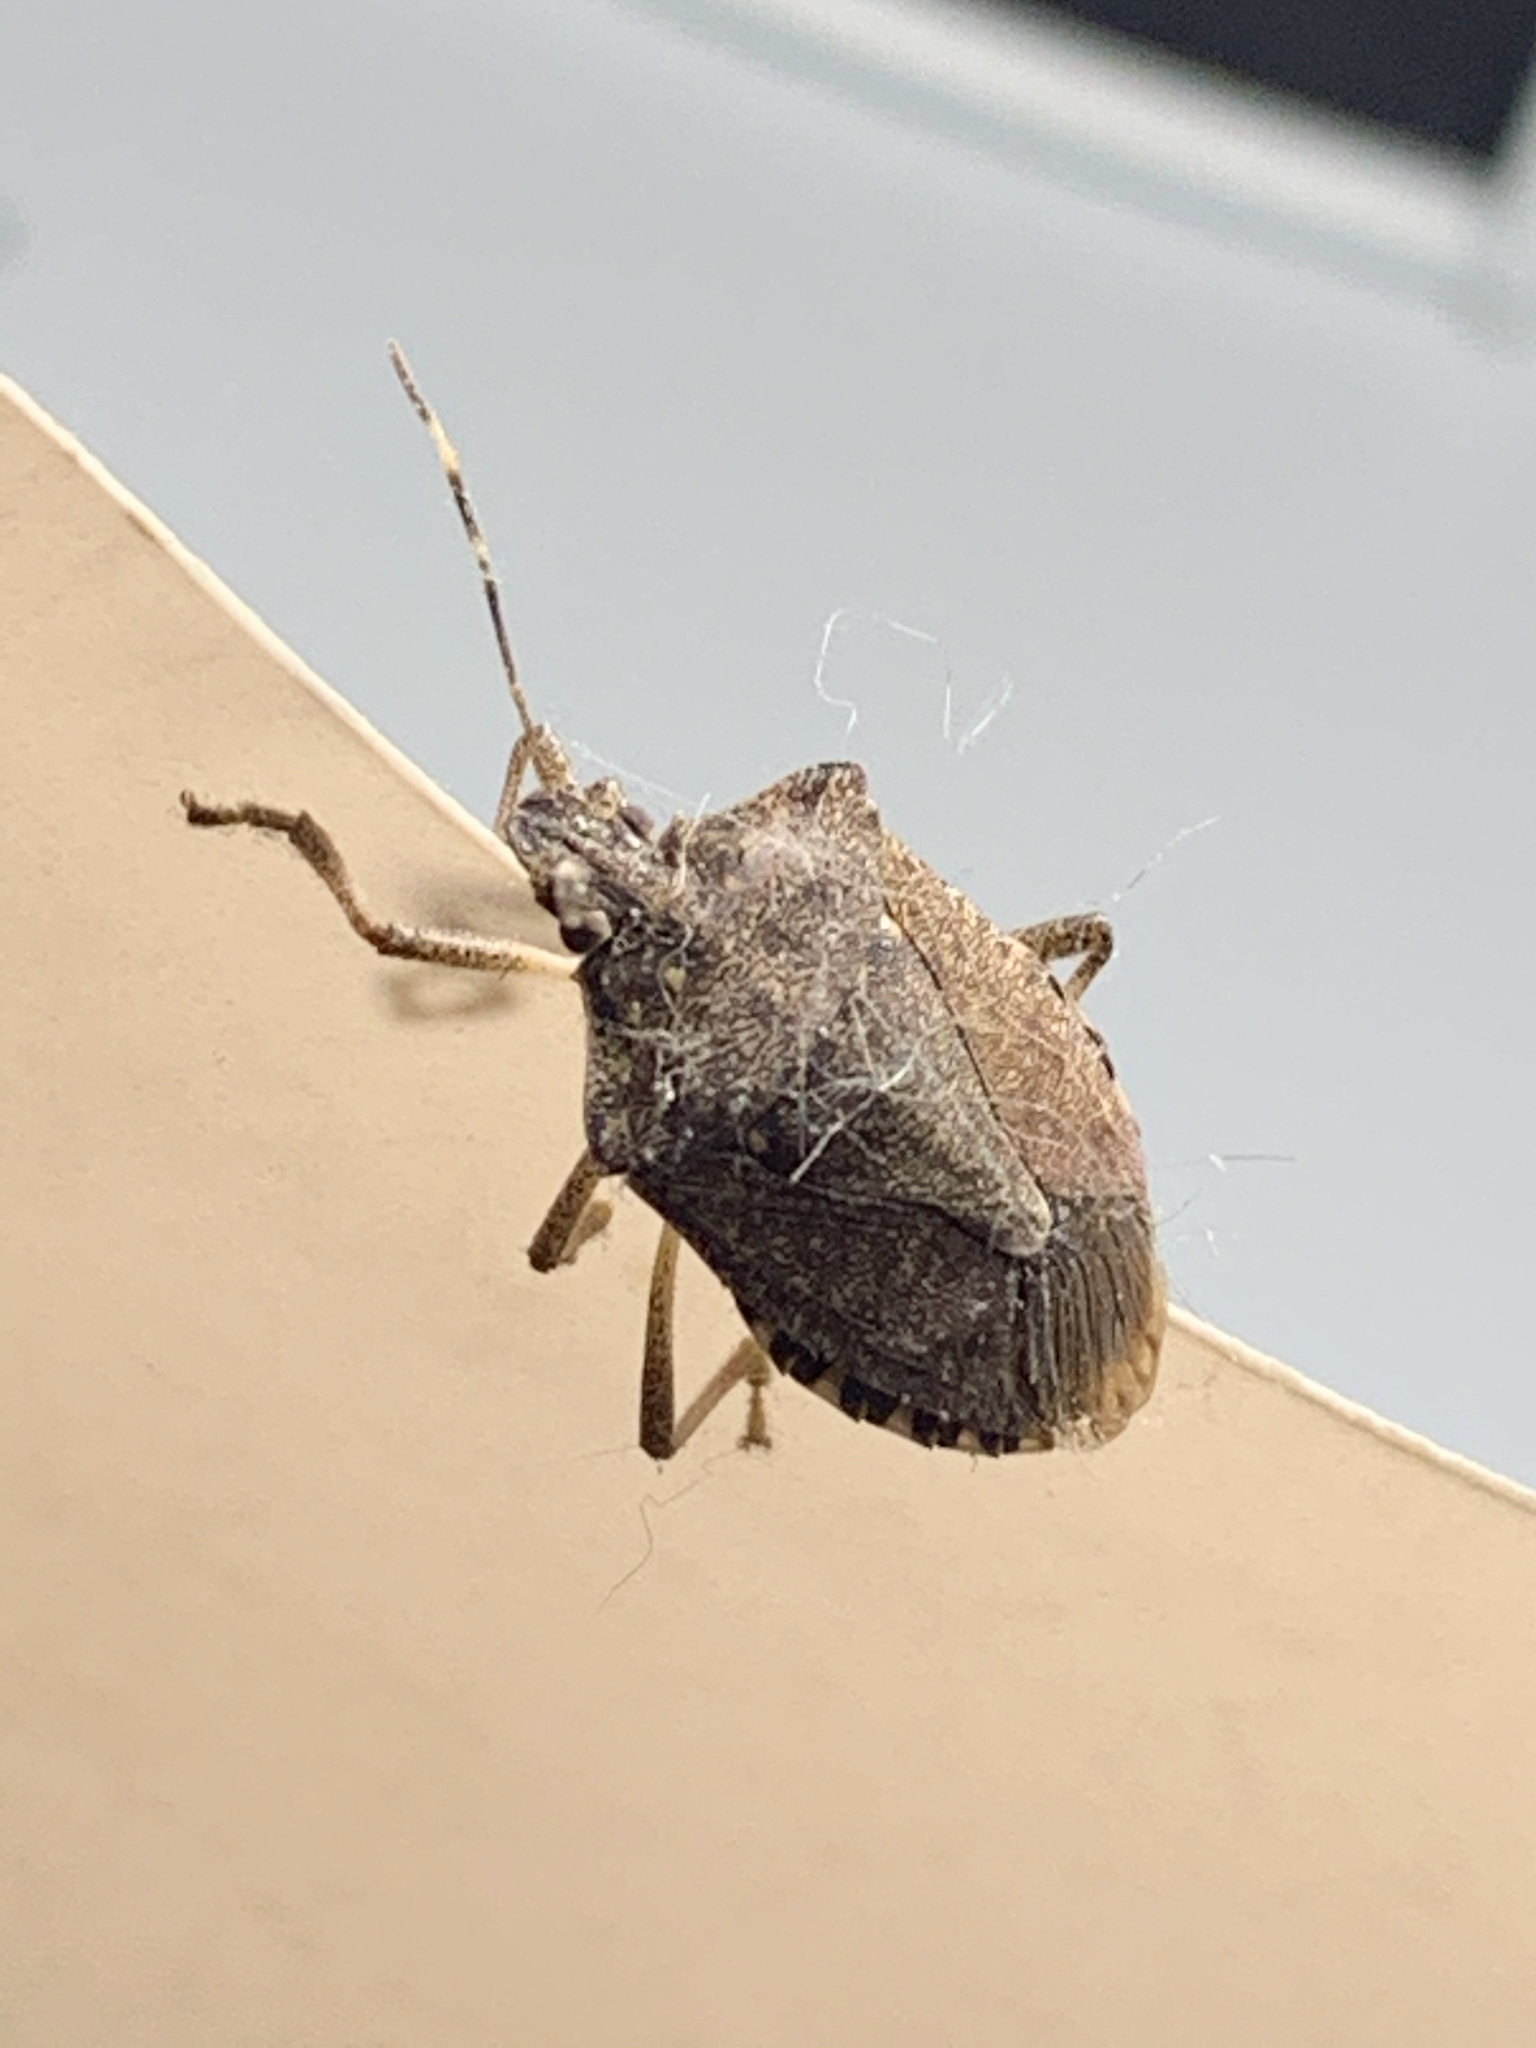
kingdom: Animalia
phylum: Arthropoda
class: Insecta
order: Hemiptera
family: Pentatomidae
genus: Halyomorpha
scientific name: Halyomorpha halys
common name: Brown marmorated stink bug
